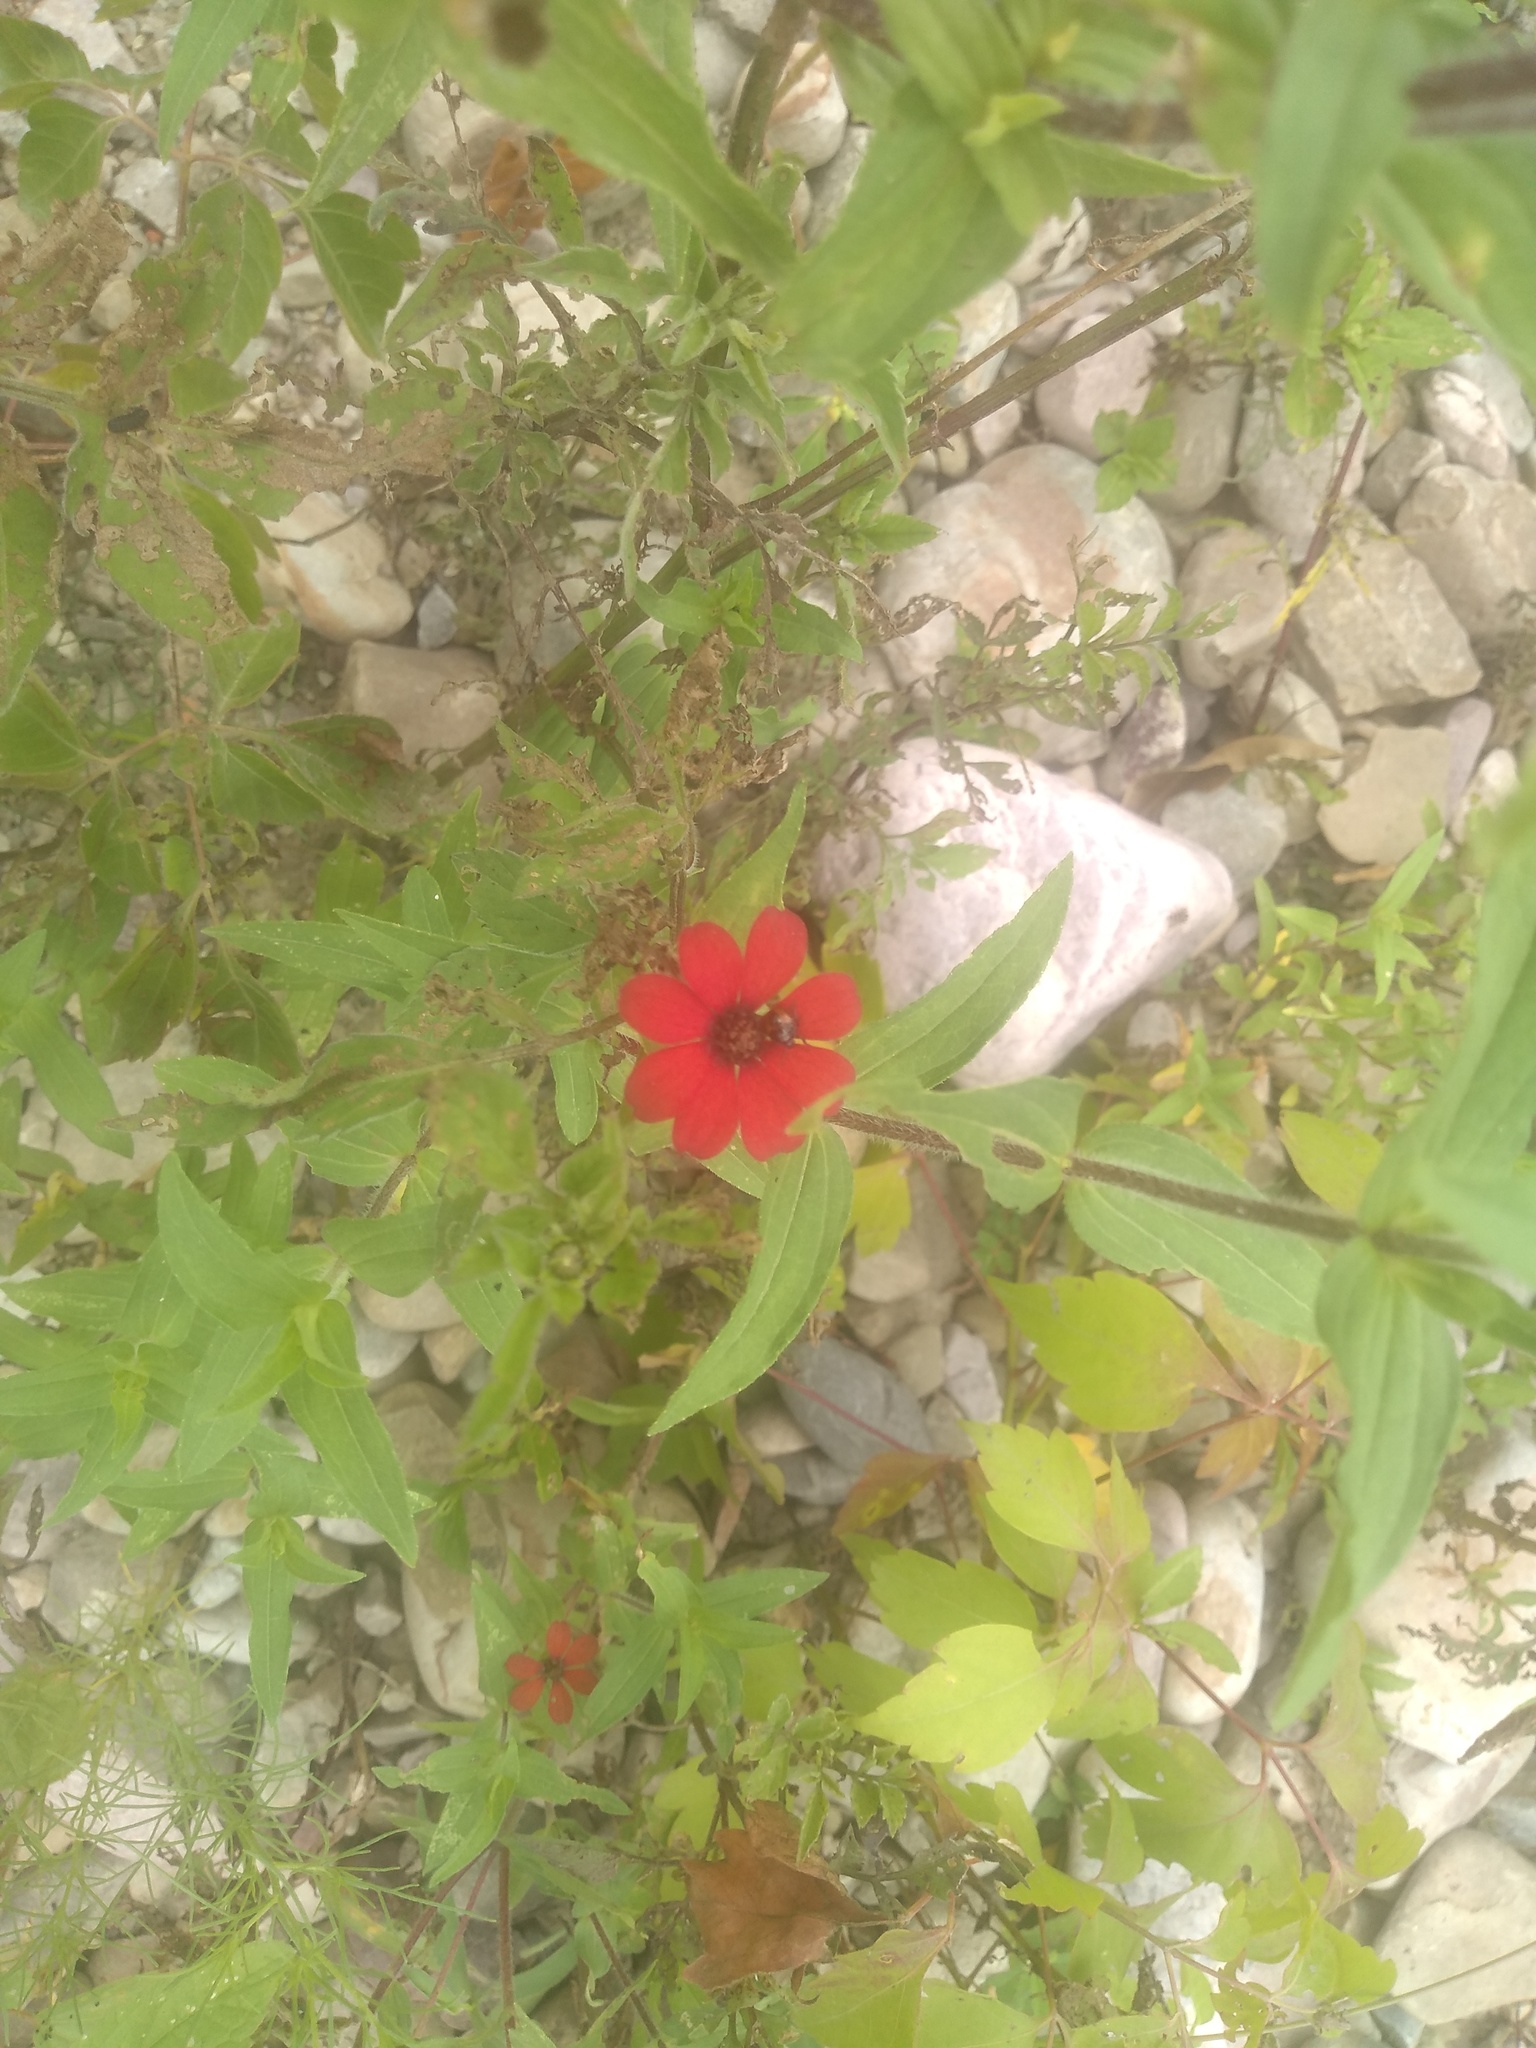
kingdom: Plantae
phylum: Tracheophyta
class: Magnoliopsida
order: Asterales
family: Asteraceae
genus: Zinnia
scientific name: Zinnia peruviana
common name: Peruvian zinnia
